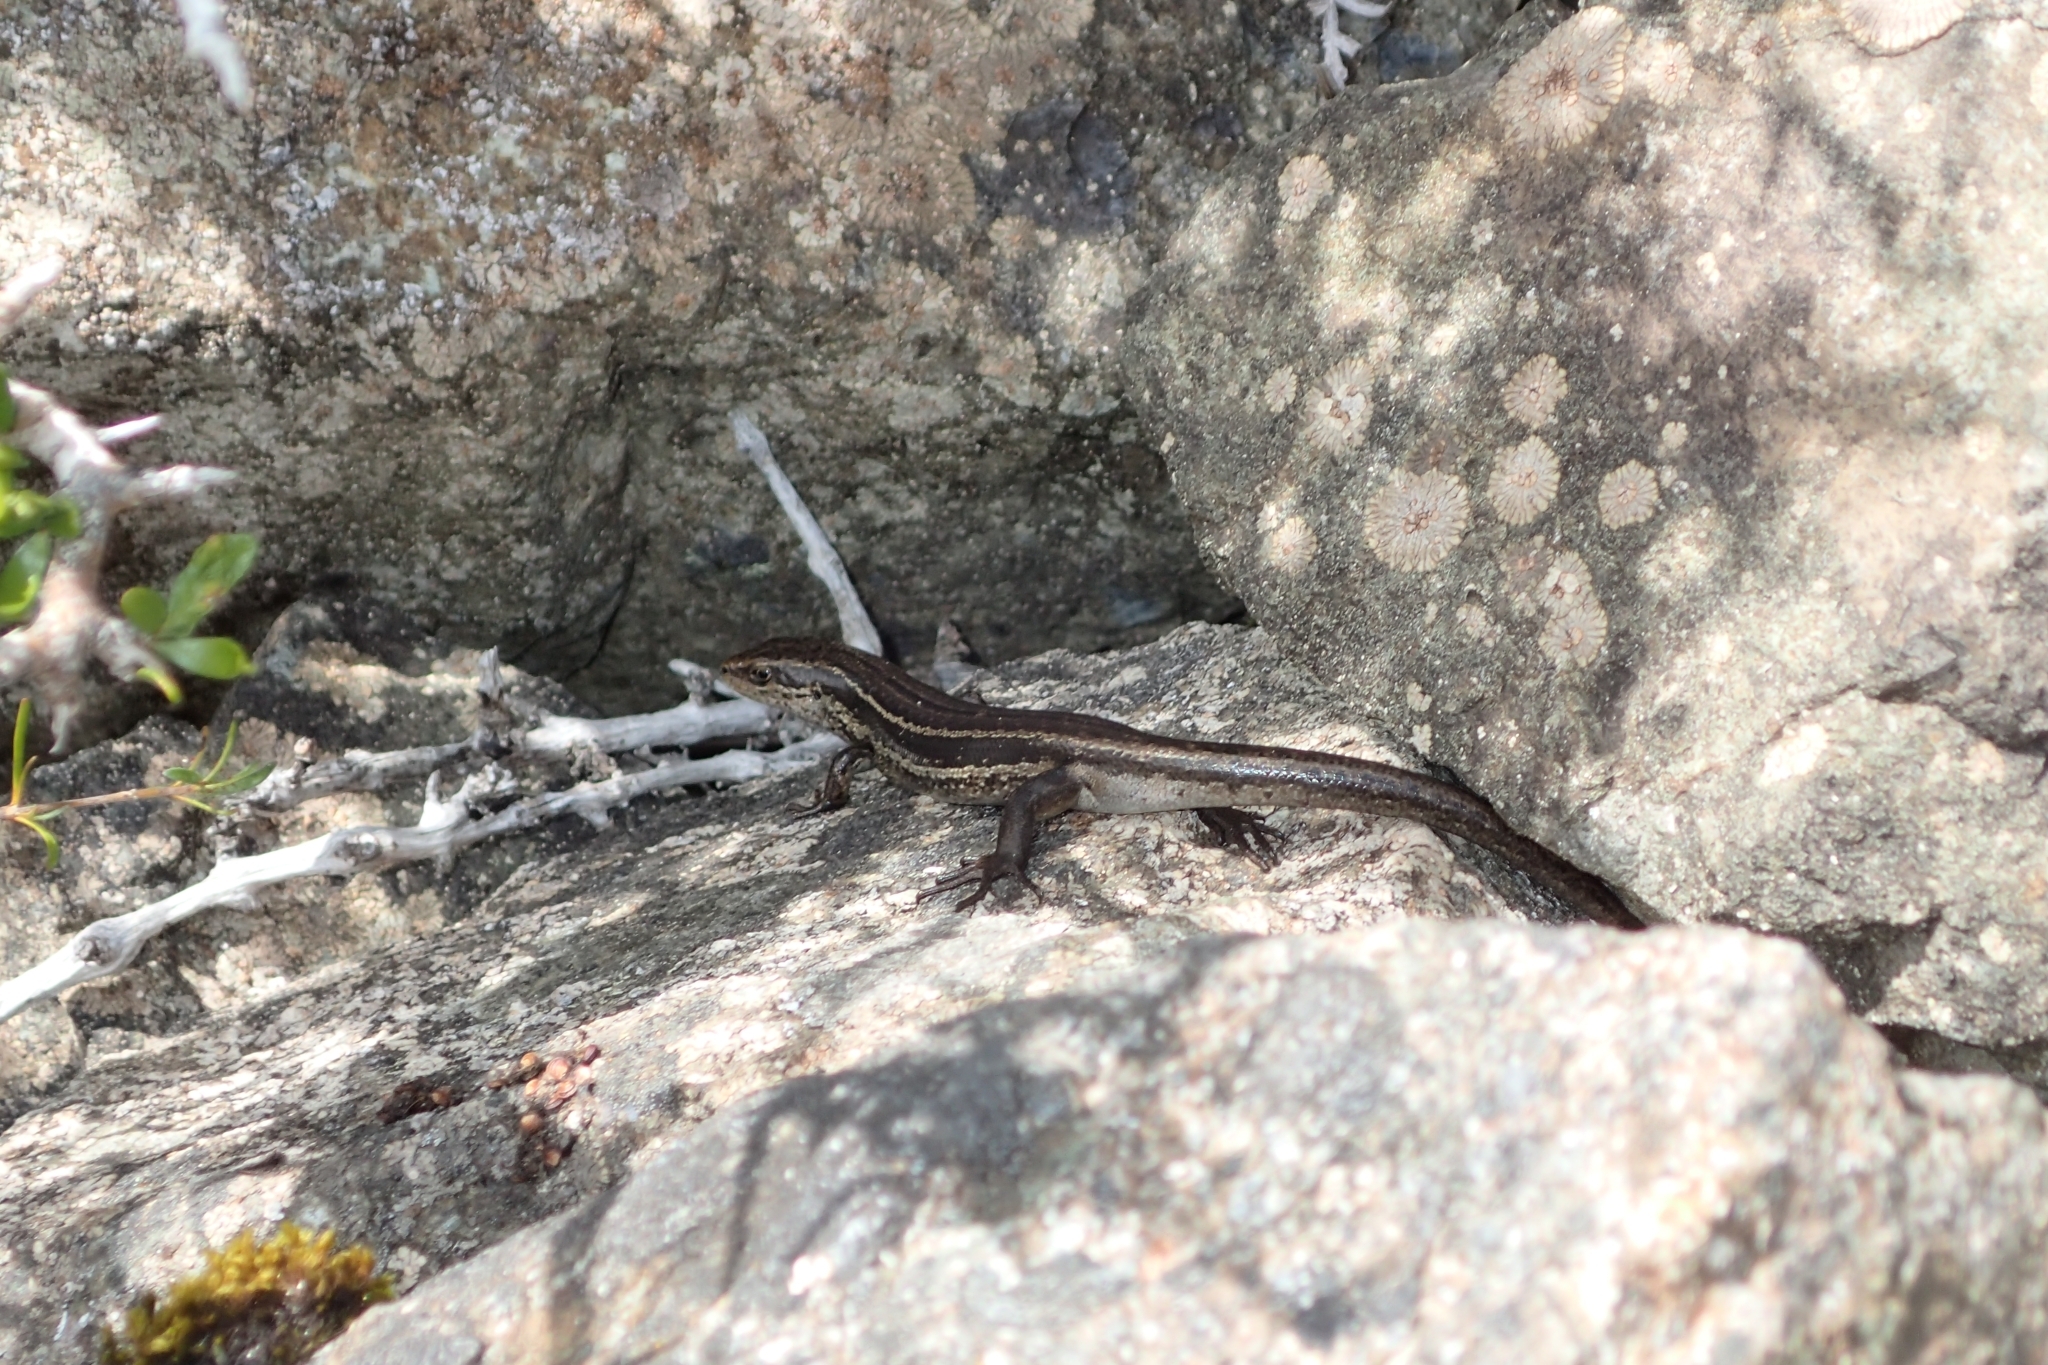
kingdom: Animalia
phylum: Chordata
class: Squamata
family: Scincidae
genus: Oligosoma
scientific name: Oligosoma repens
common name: Eyres skink
